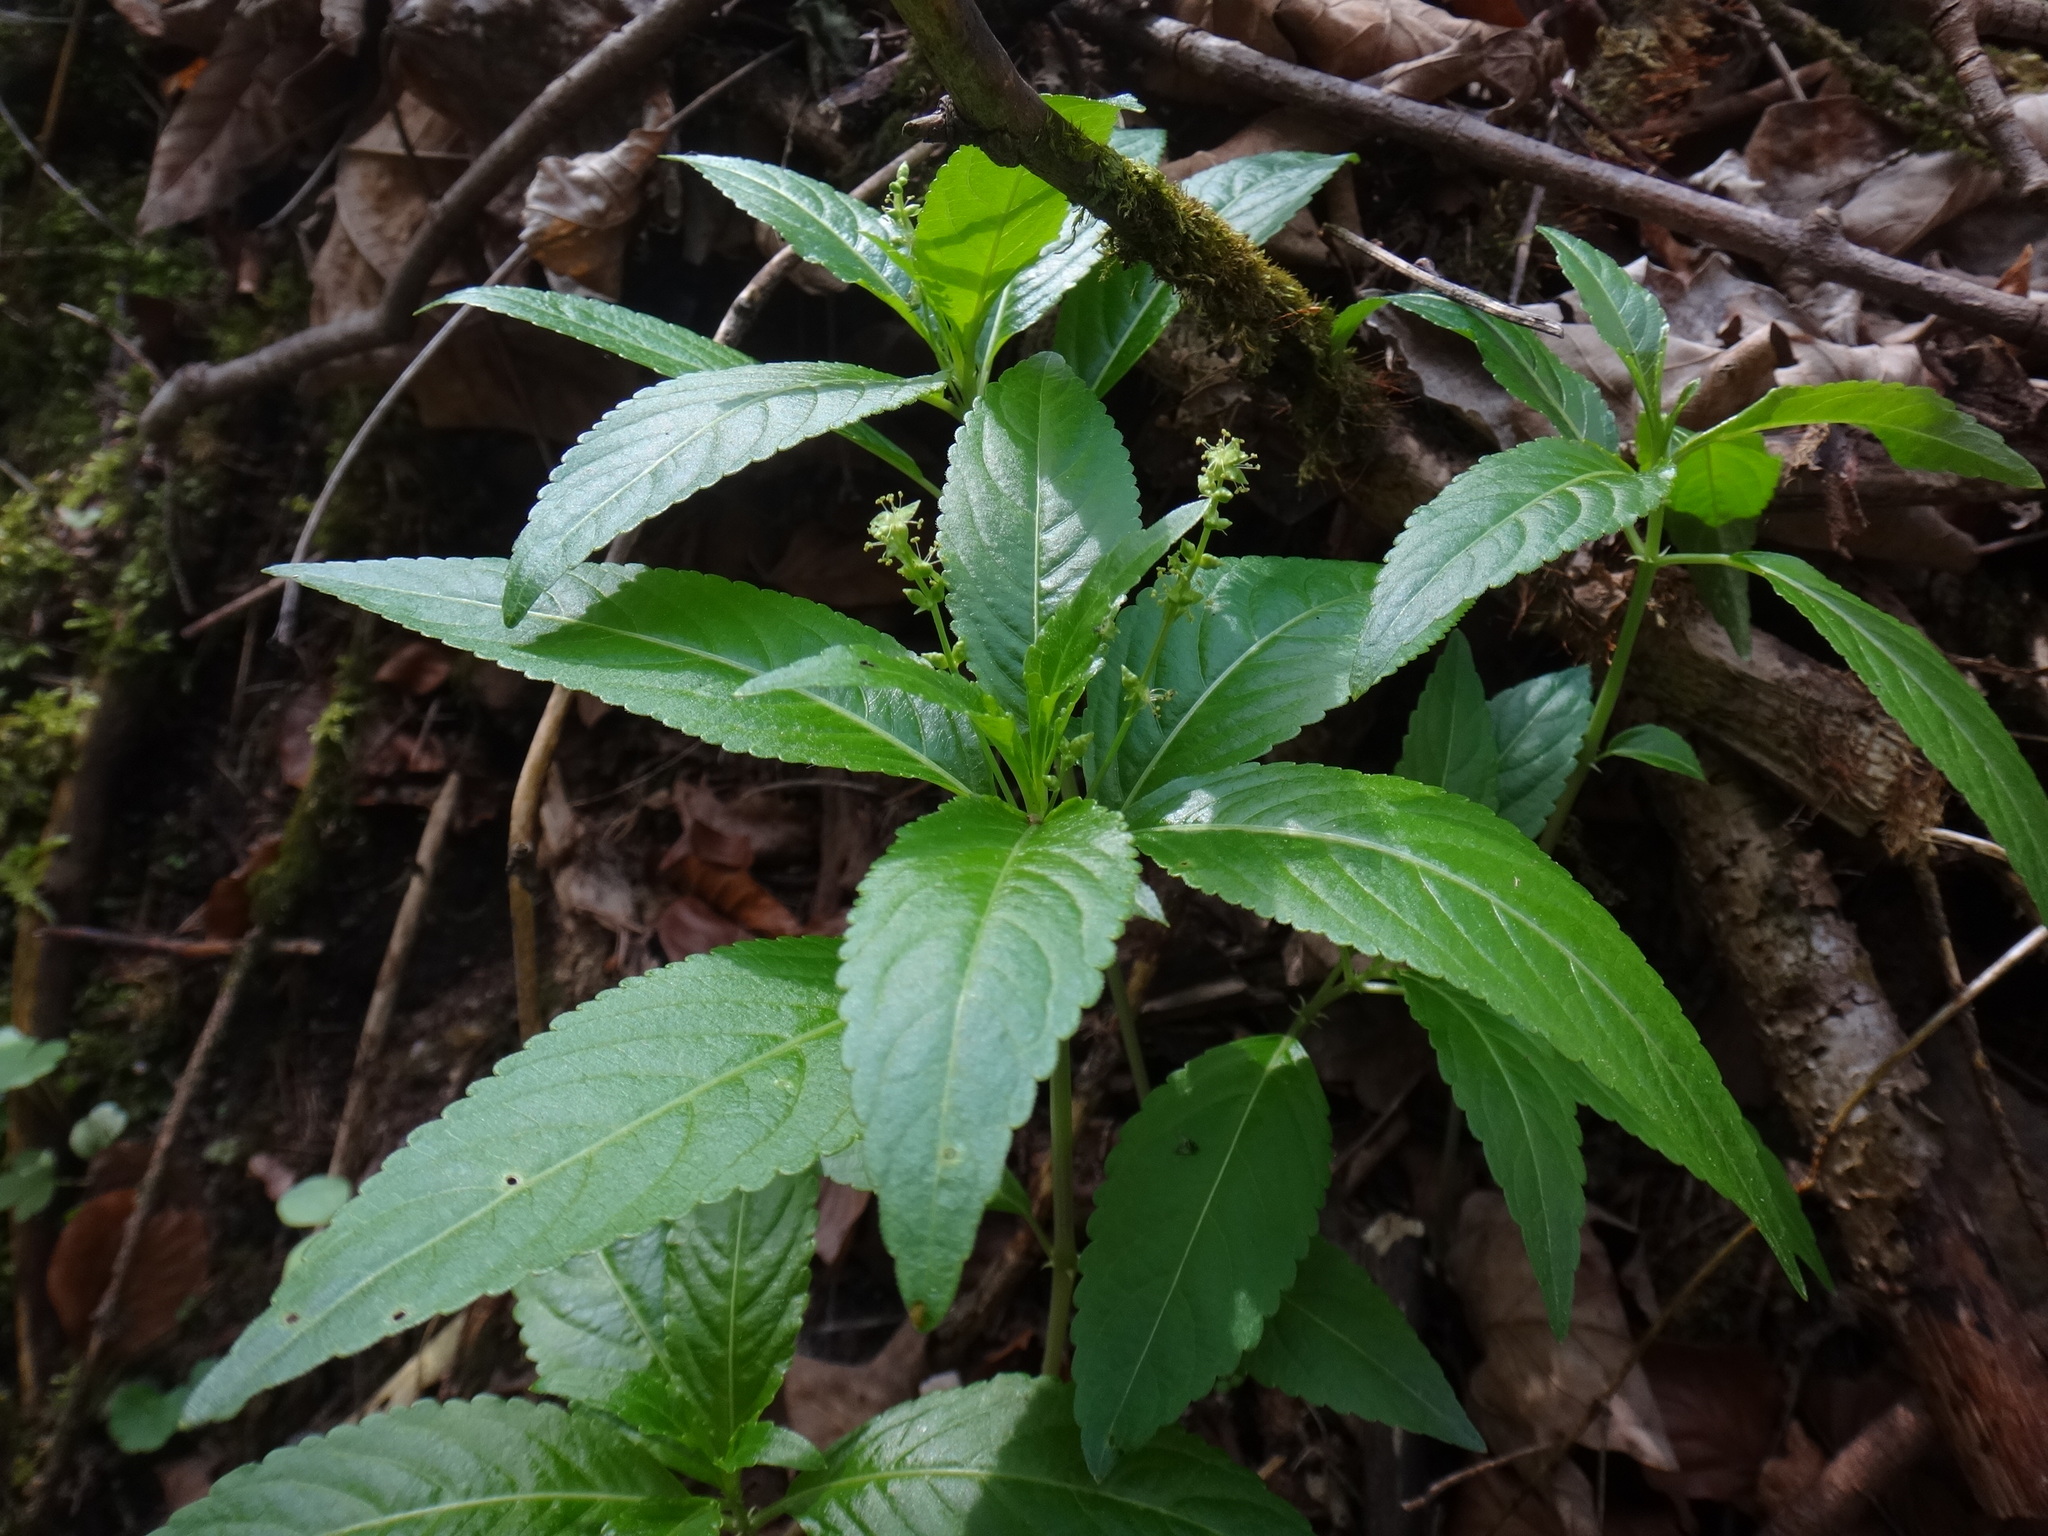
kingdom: Plantae
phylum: Tracheophyta
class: Magnoliopsida
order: Malpighiales
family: Euphorbiaceae
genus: Mercurialis
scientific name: Mercurialis perennis
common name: Dog mercury
